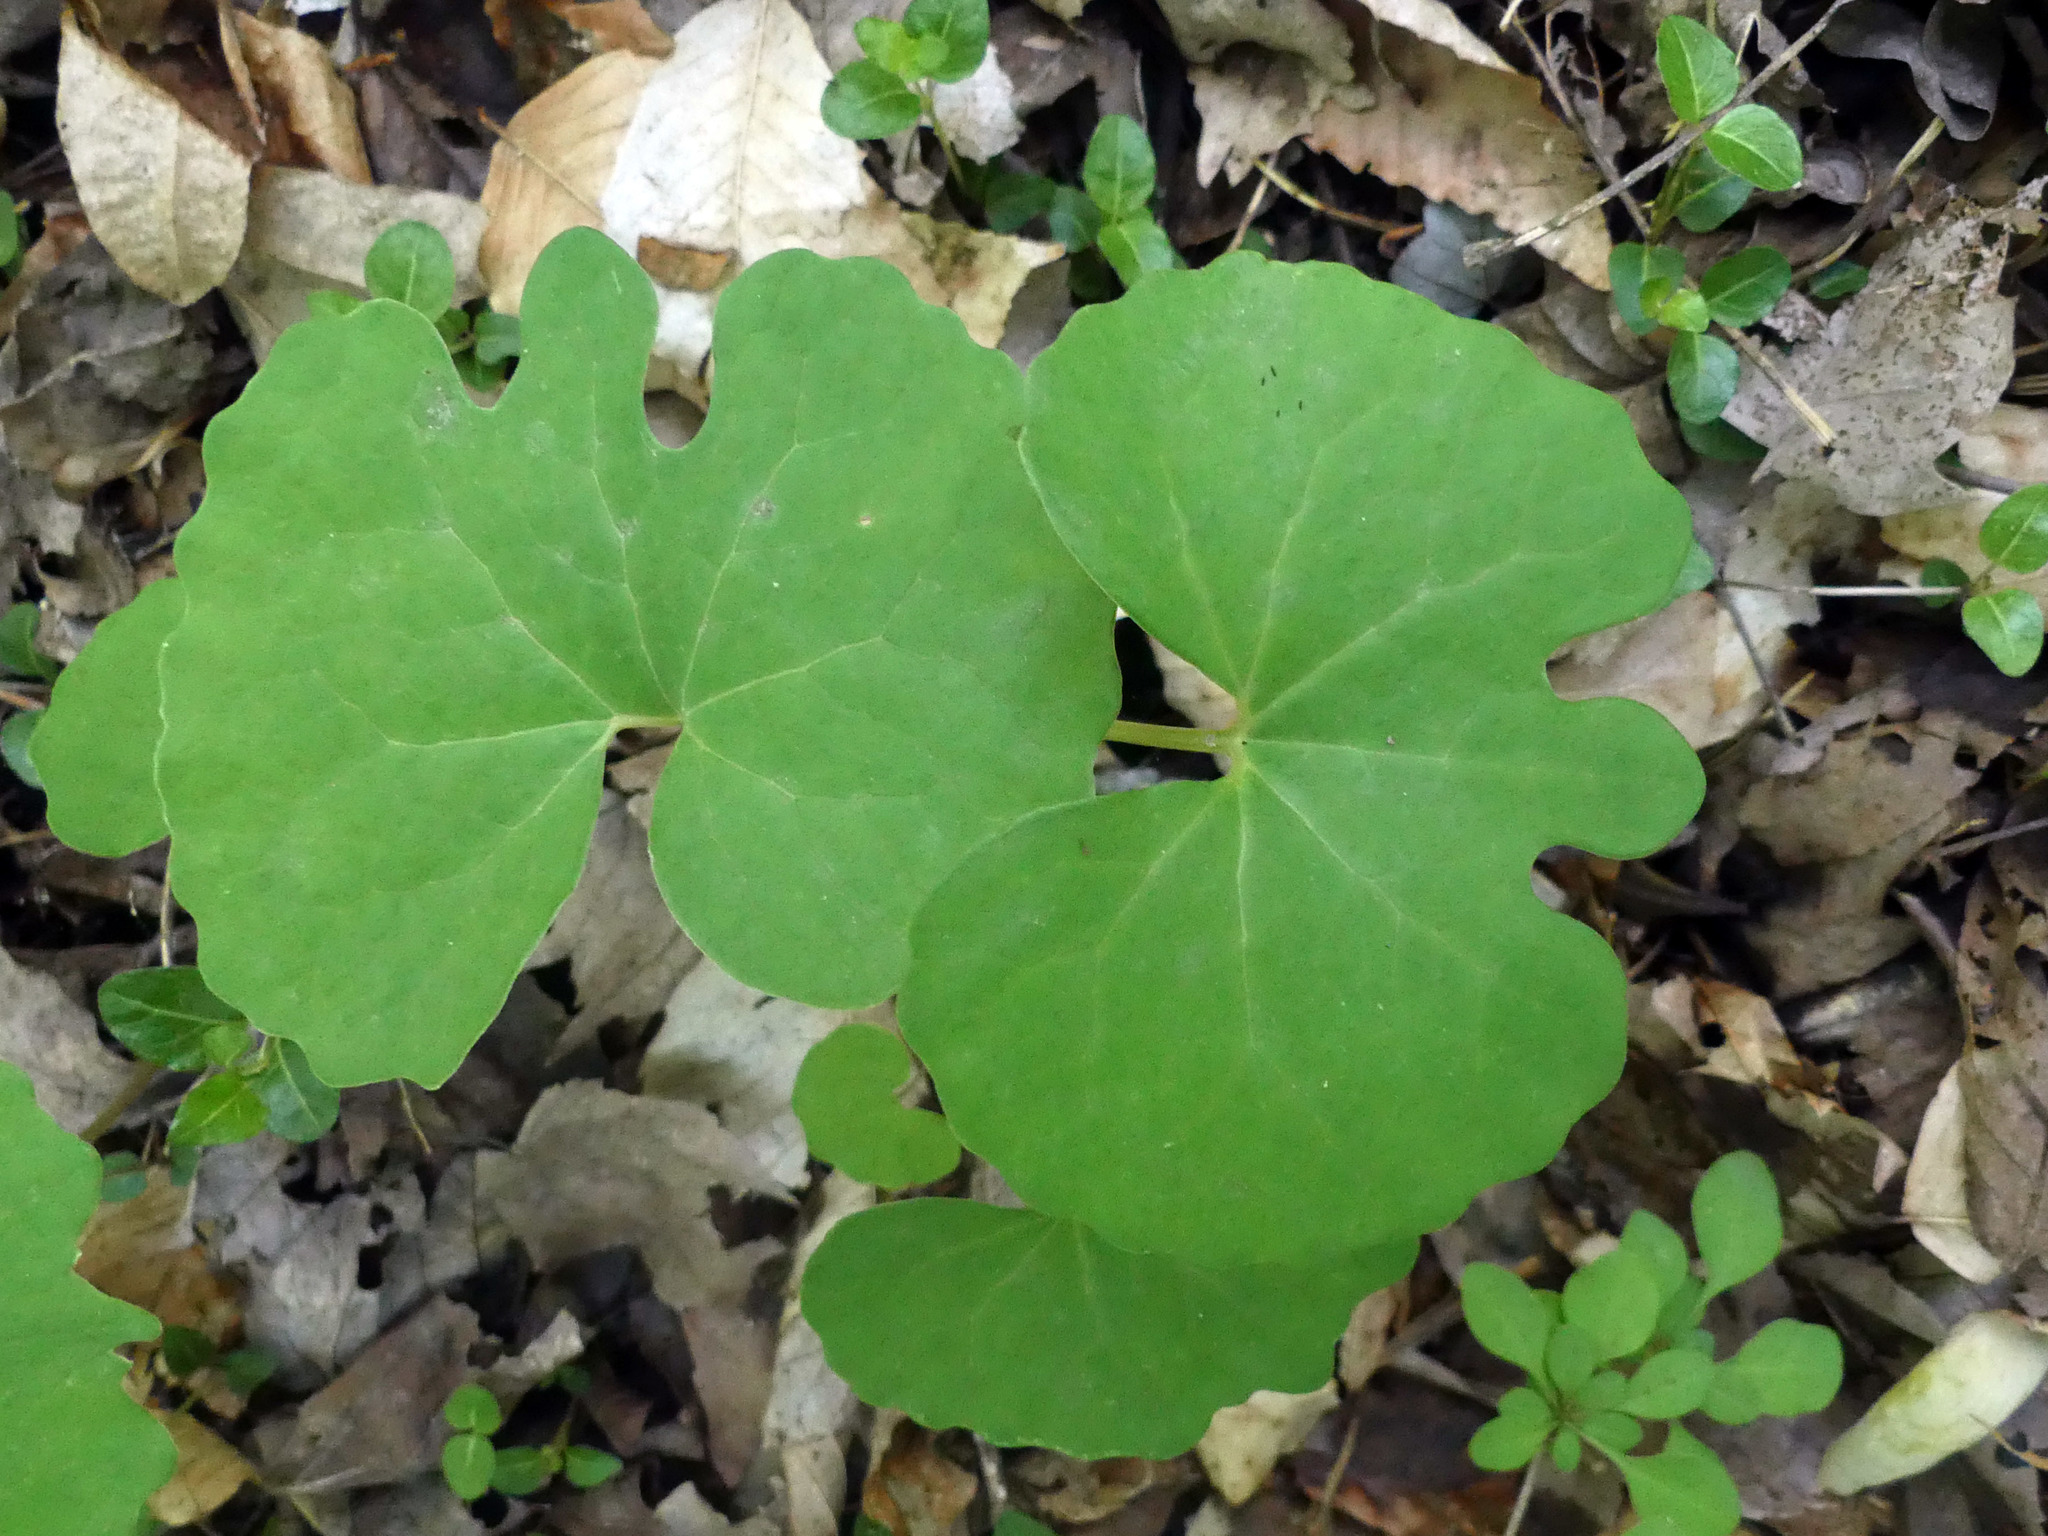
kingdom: Plantae
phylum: Tracheophyta
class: Magnoliopsida
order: Ranunculales
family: Papaveraceae
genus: Sanguinaria
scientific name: Sanguinaria canadensis
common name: Bloodroot
